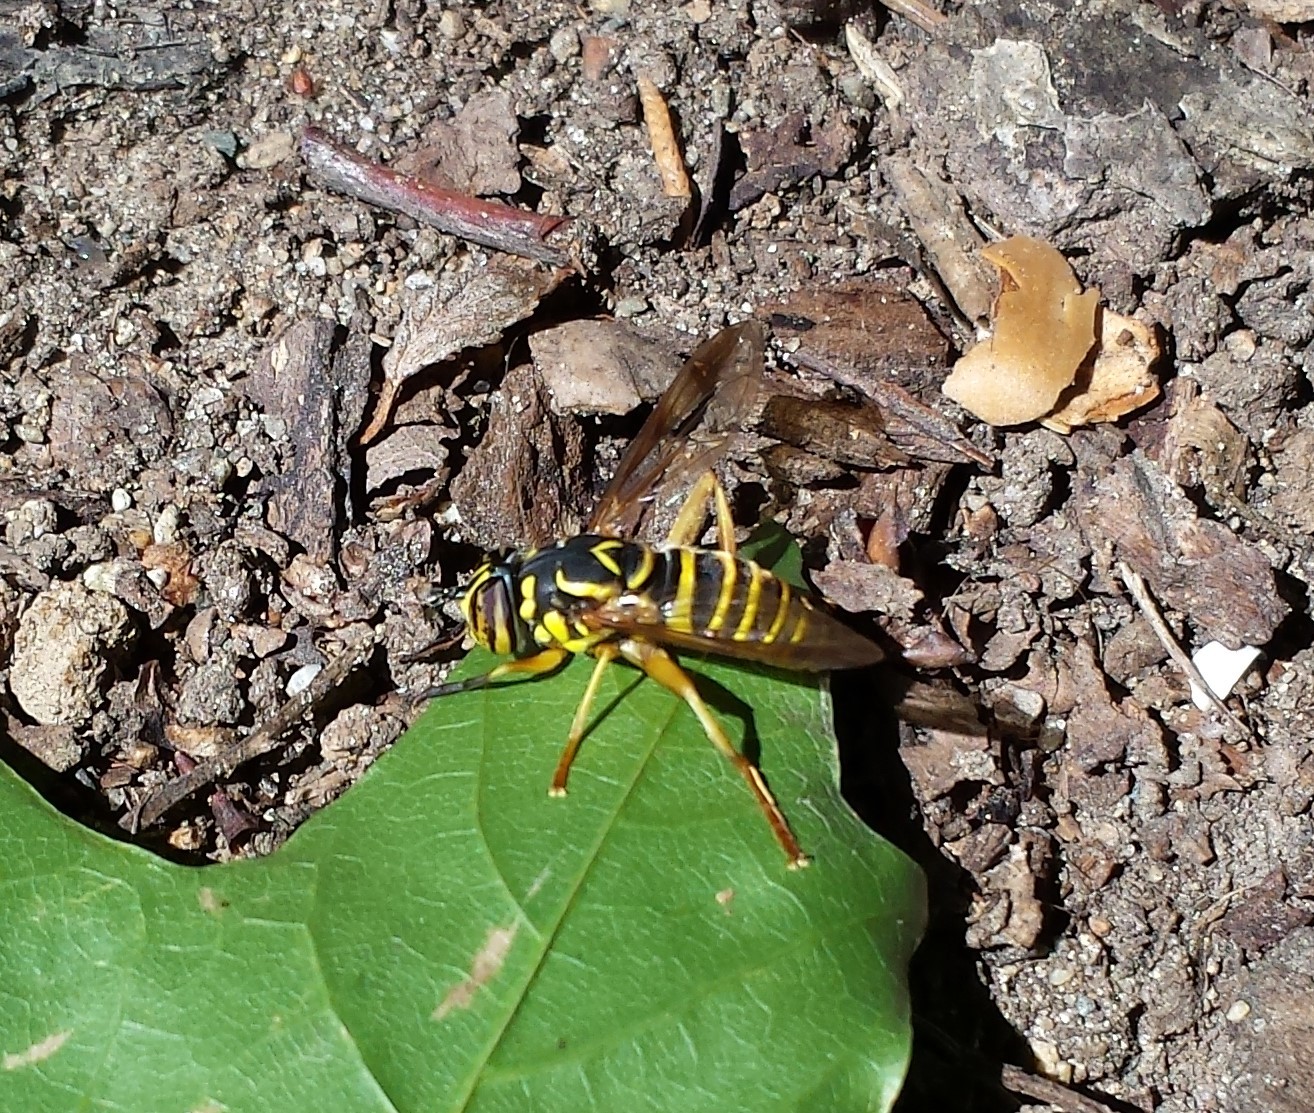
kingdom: Animalia
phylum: Arthropoda
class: Insecta
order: Diptera
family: Syrphidae
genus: Spilomyia
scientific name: Spilomyia longicornis
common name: Eastern hornet fly
